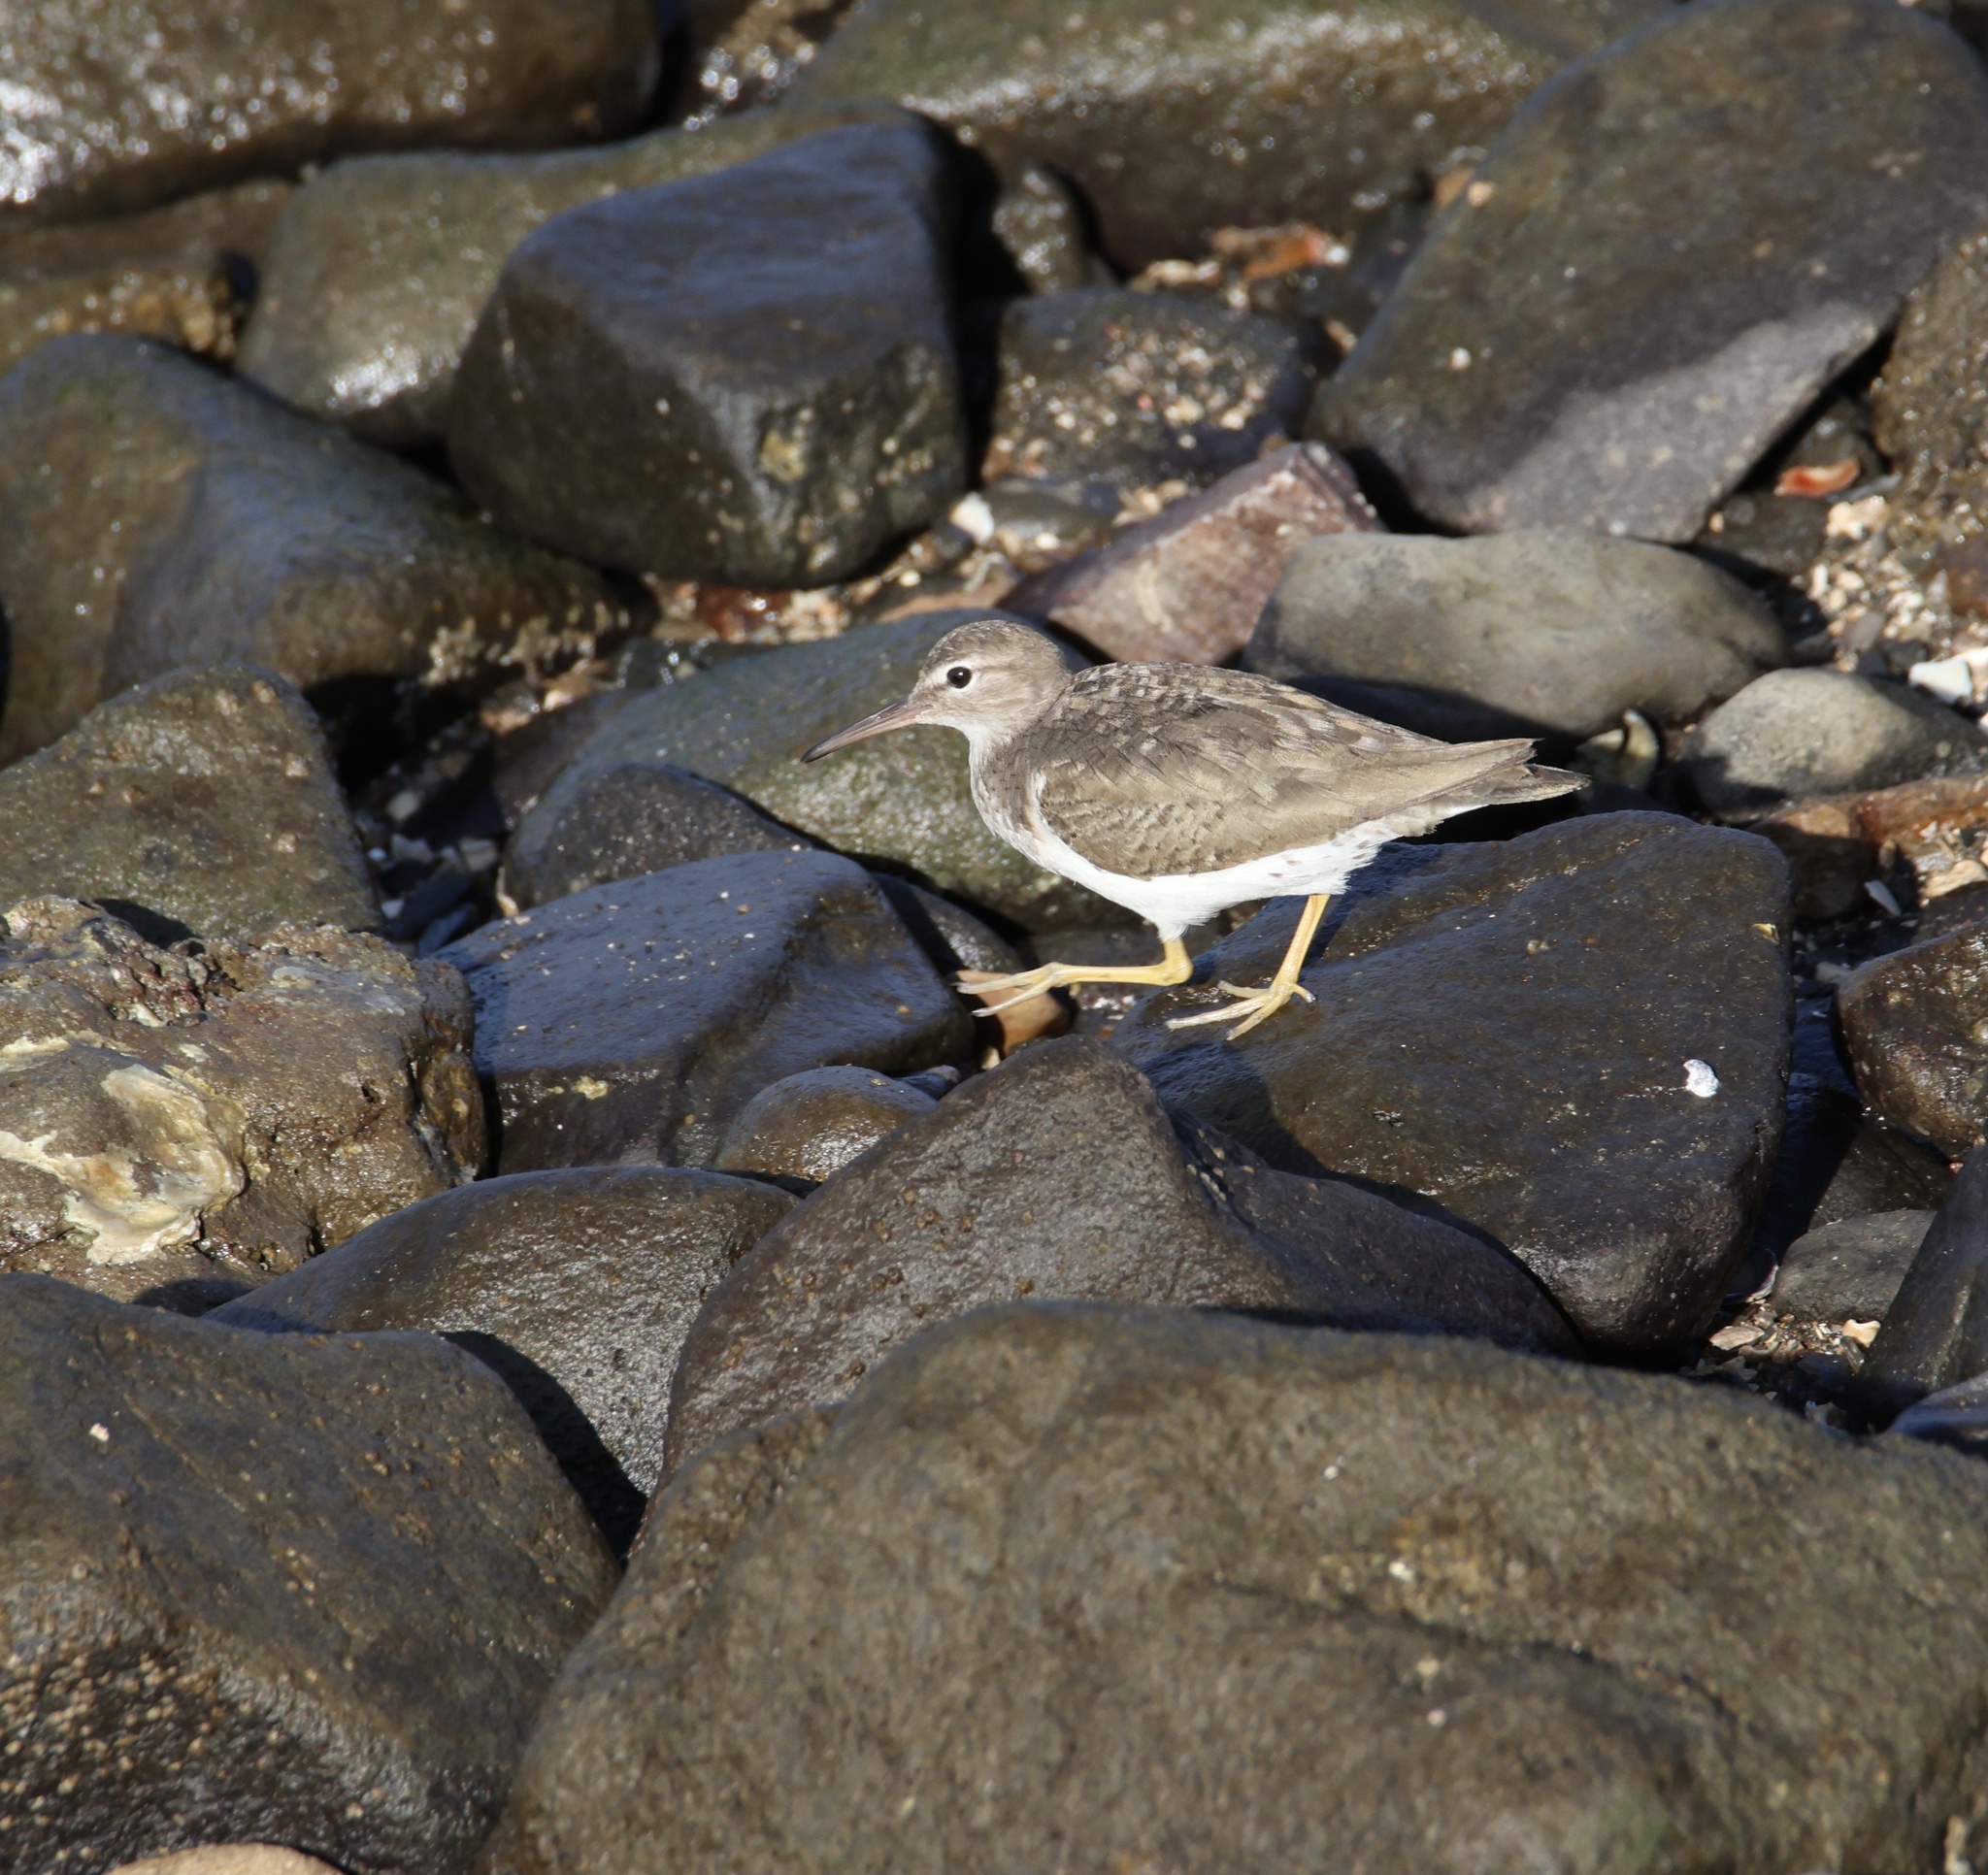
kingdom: Animalia
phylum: Chordata
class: Aves
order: Charadriiformes
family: Scolopacidae
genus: Actitis
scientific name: Actitis macularius
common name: Spotted sandpiper
